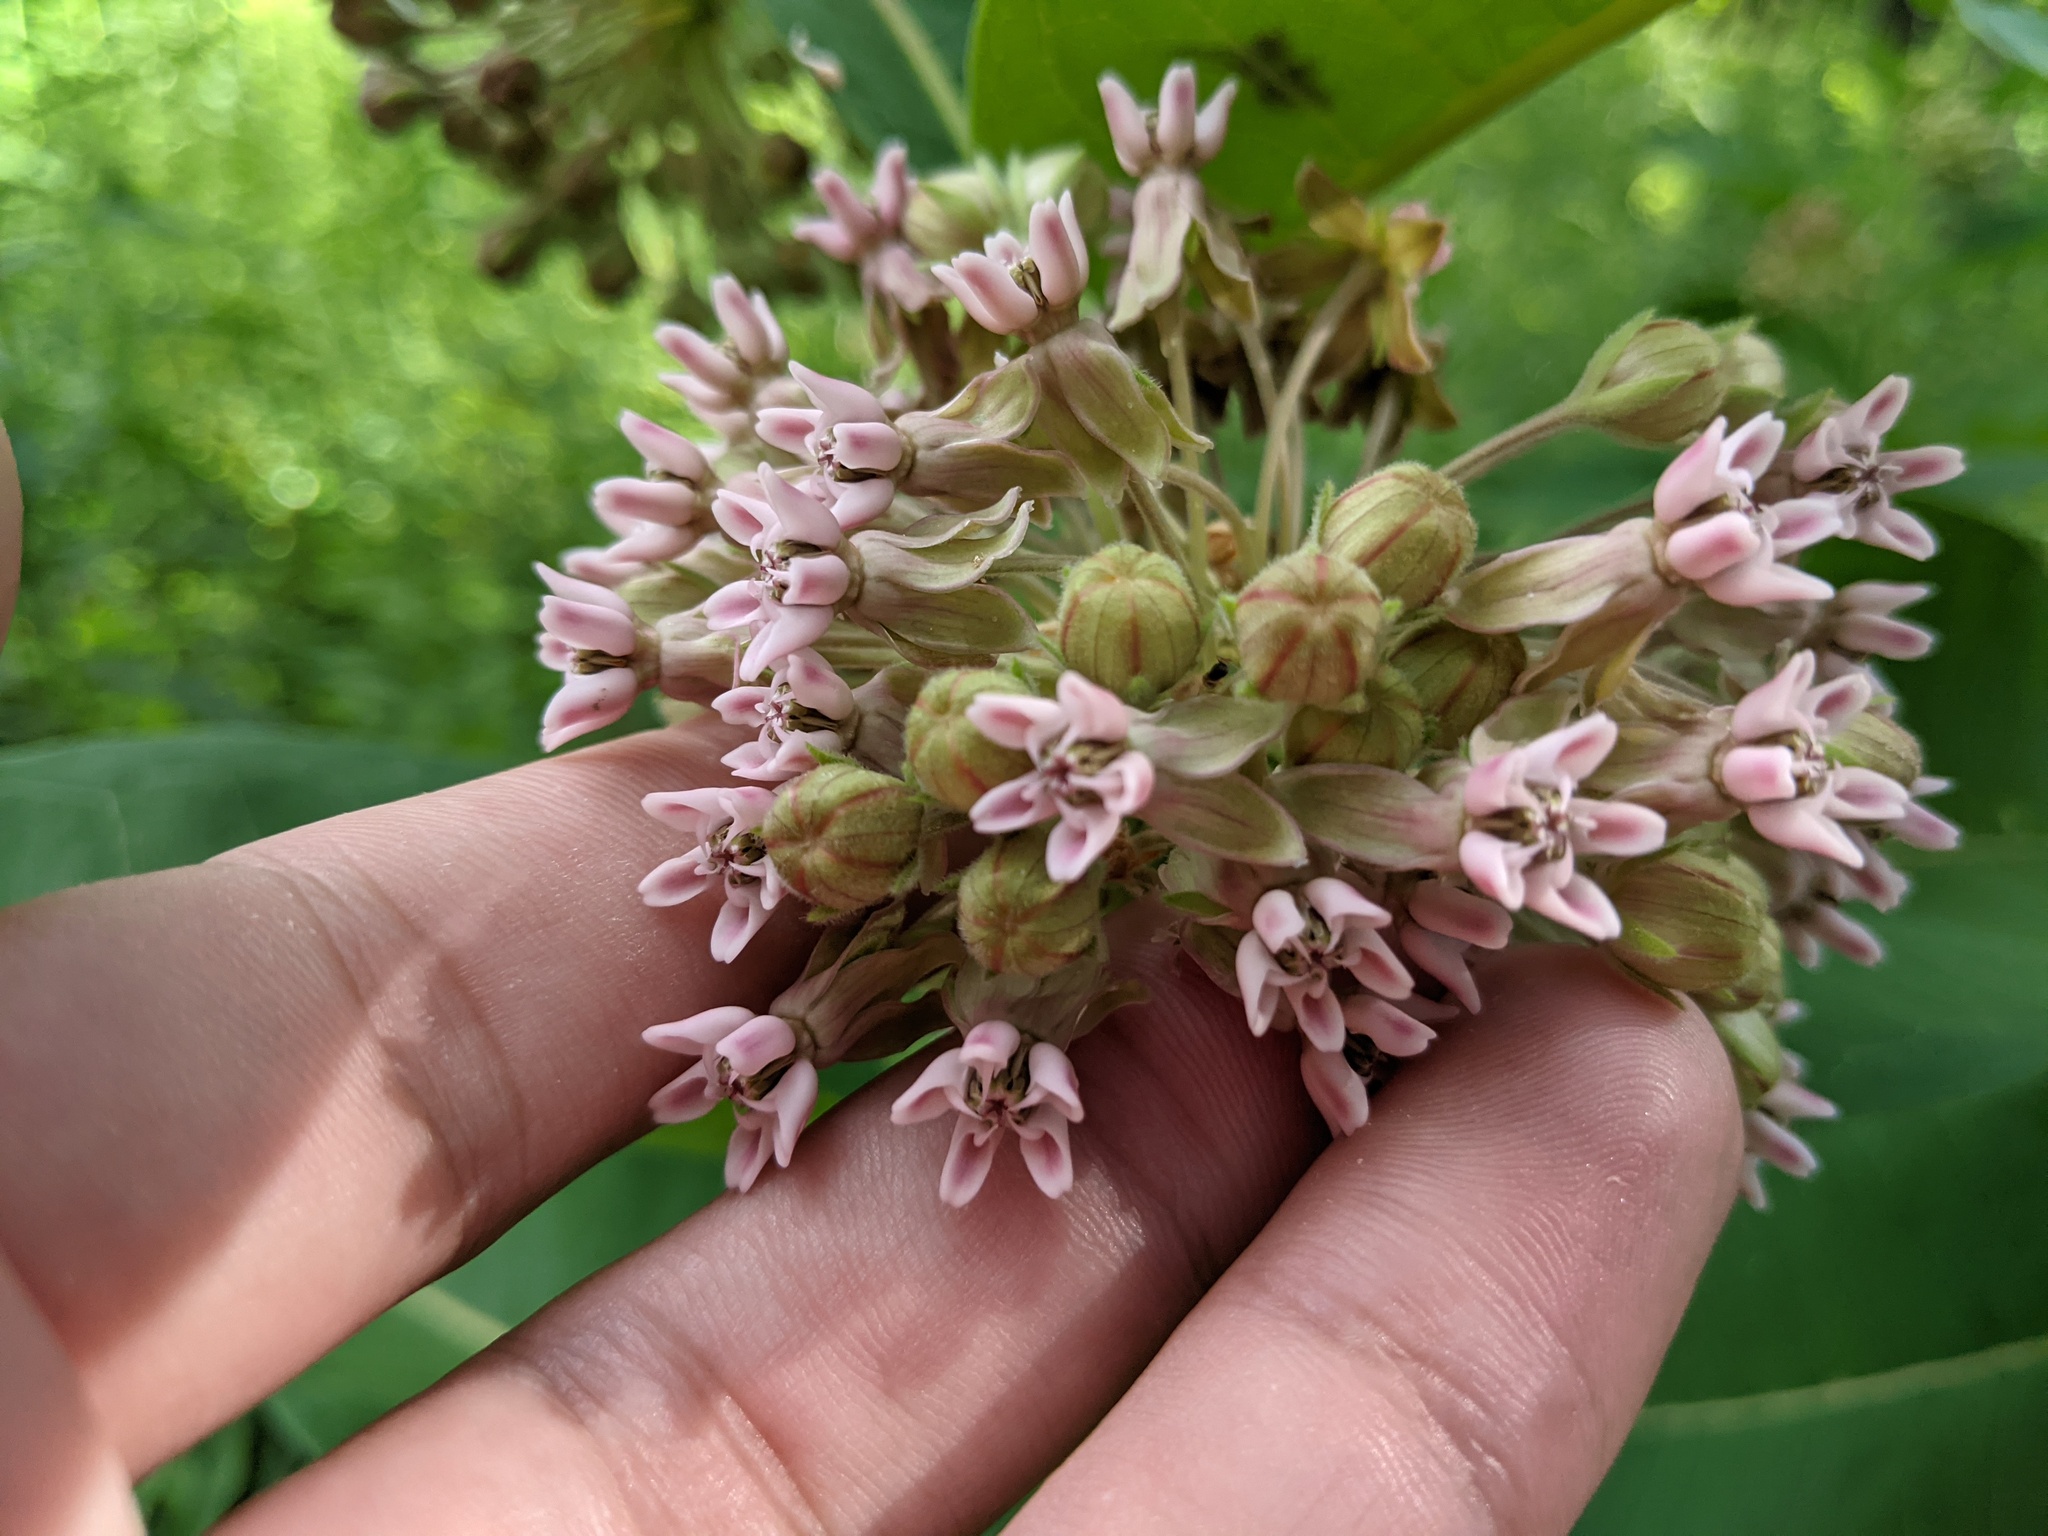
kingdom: Plantae
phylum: Tracheophyta
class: Magnoliopsida
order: Gentianales
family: Apocynaceae
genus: Asclepias
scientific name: Asclepias syriaca
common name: Common milkweed
